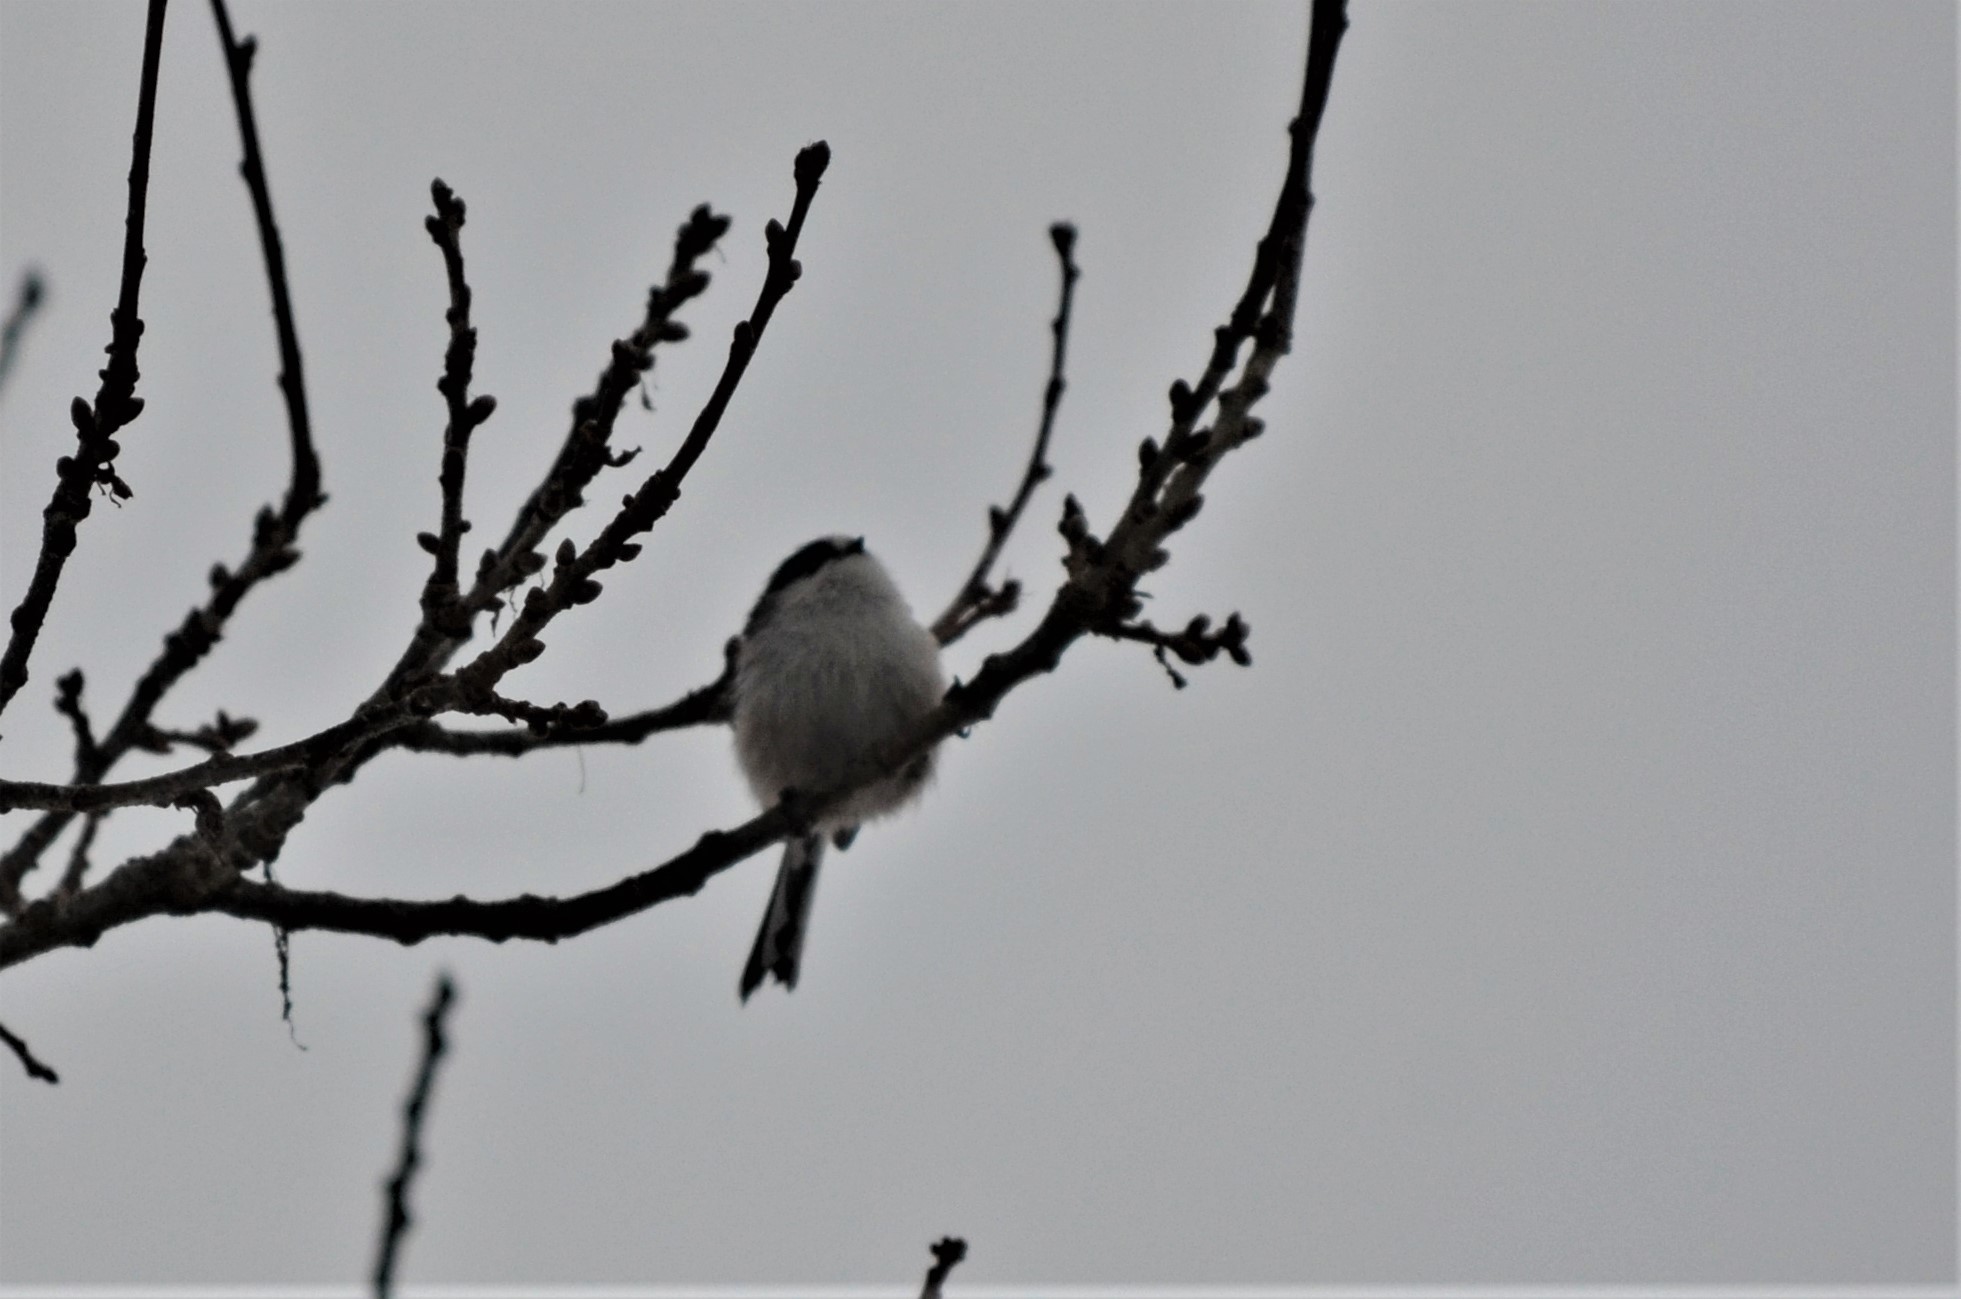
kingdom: Animalia
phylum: Chordata
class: Aves
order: Passeriformes
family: Aegithalidae
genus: Aegithalos
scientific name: Aegithalos caudatus
